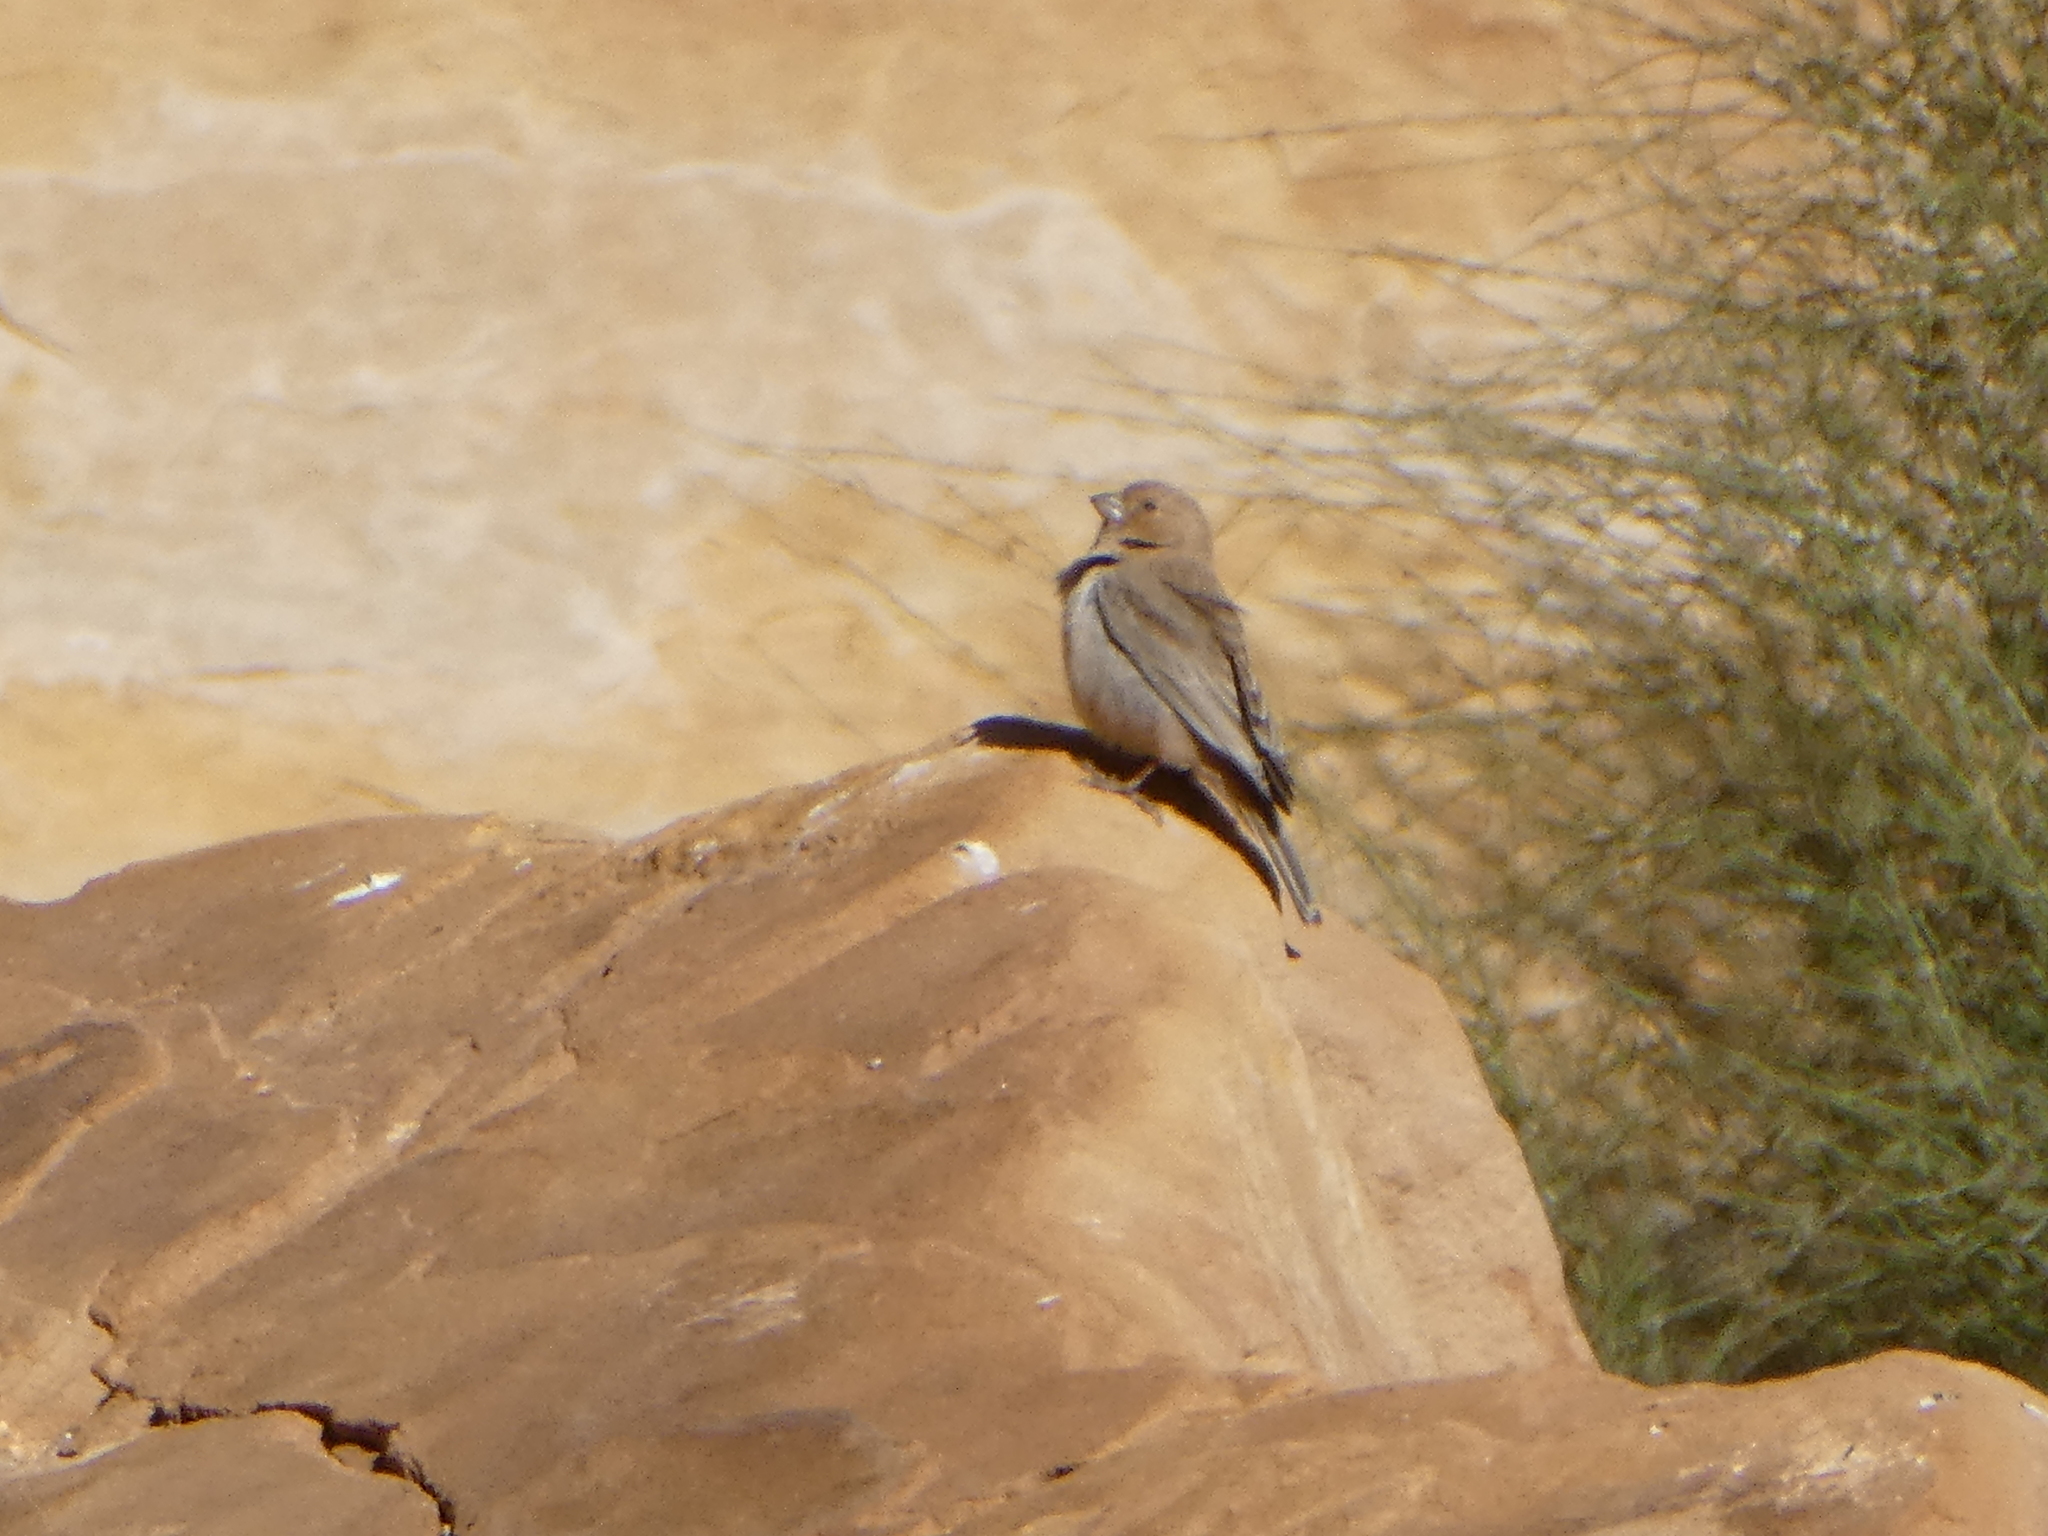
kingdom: Animalia
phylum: Chordata
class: Aves
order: Passeriformes
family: Fringillidae
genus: Carpodacus
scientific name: Carpodacus synoicus
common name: Sinai rosefinch
